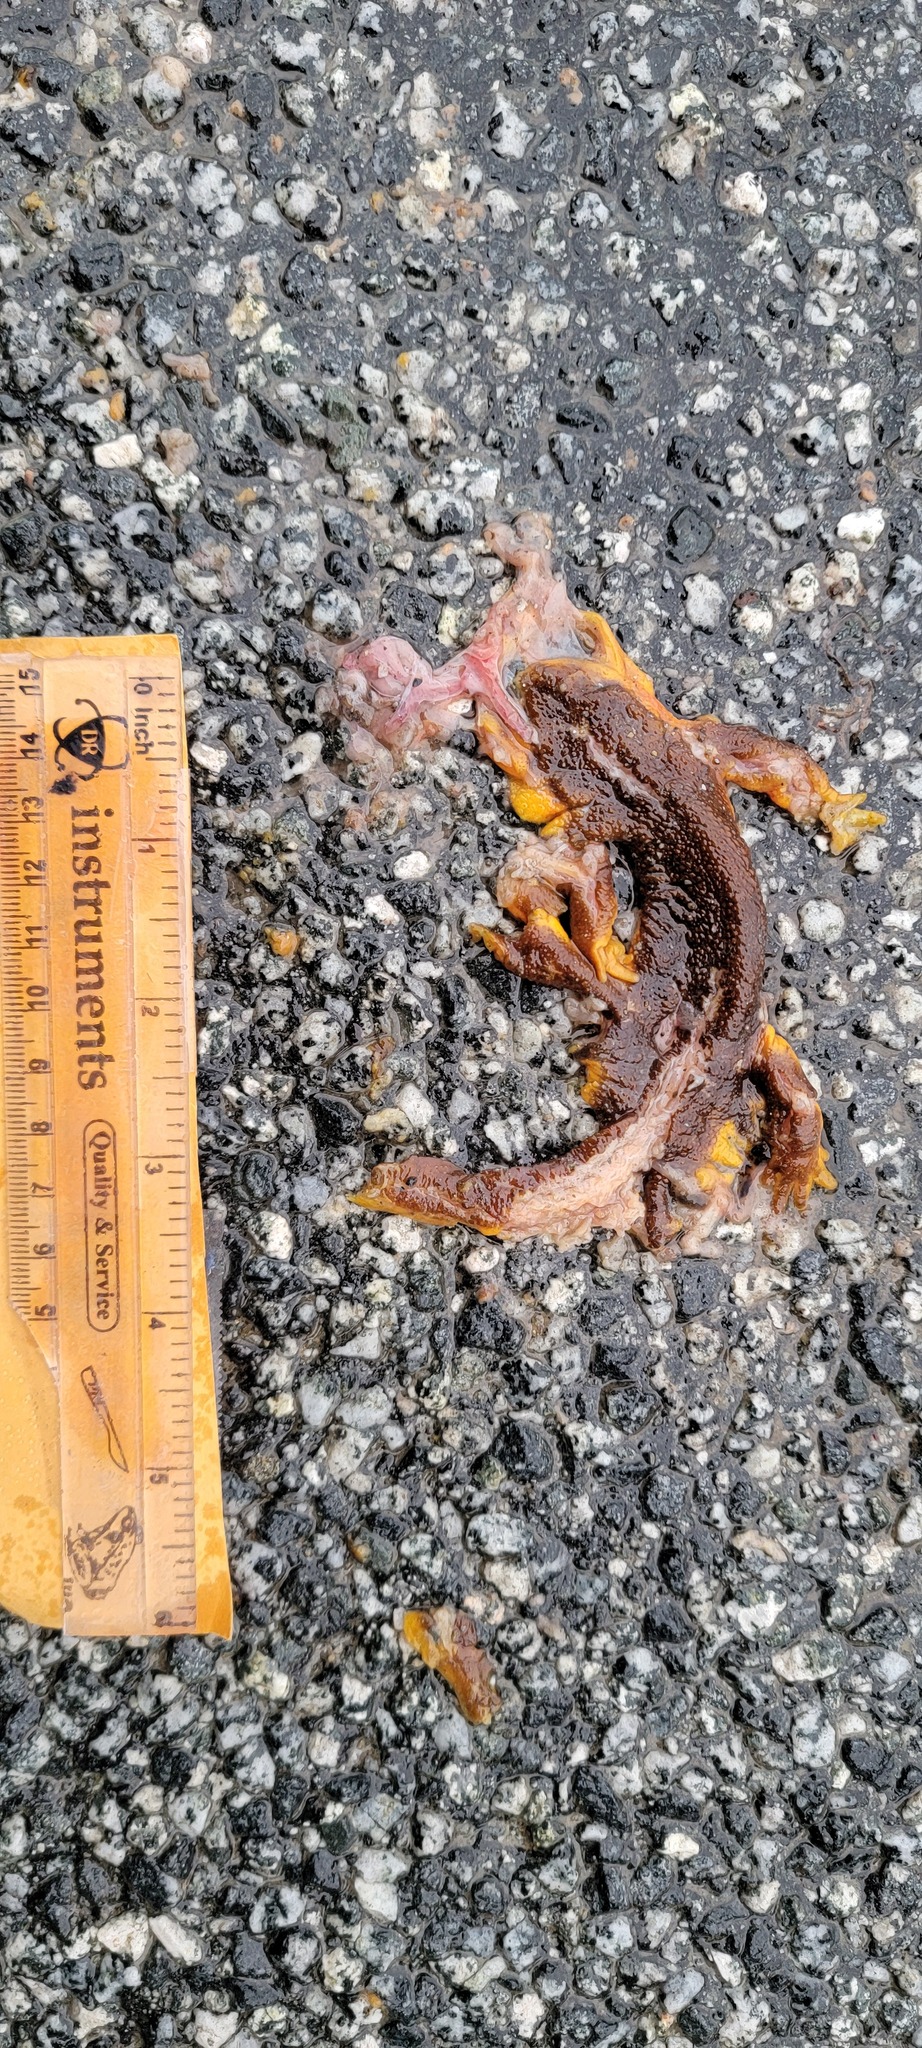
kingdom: Animalia
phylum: Chordata
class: Amphibia
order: Caudata
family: Salamandridae
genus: Taricha
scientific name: Taricha
